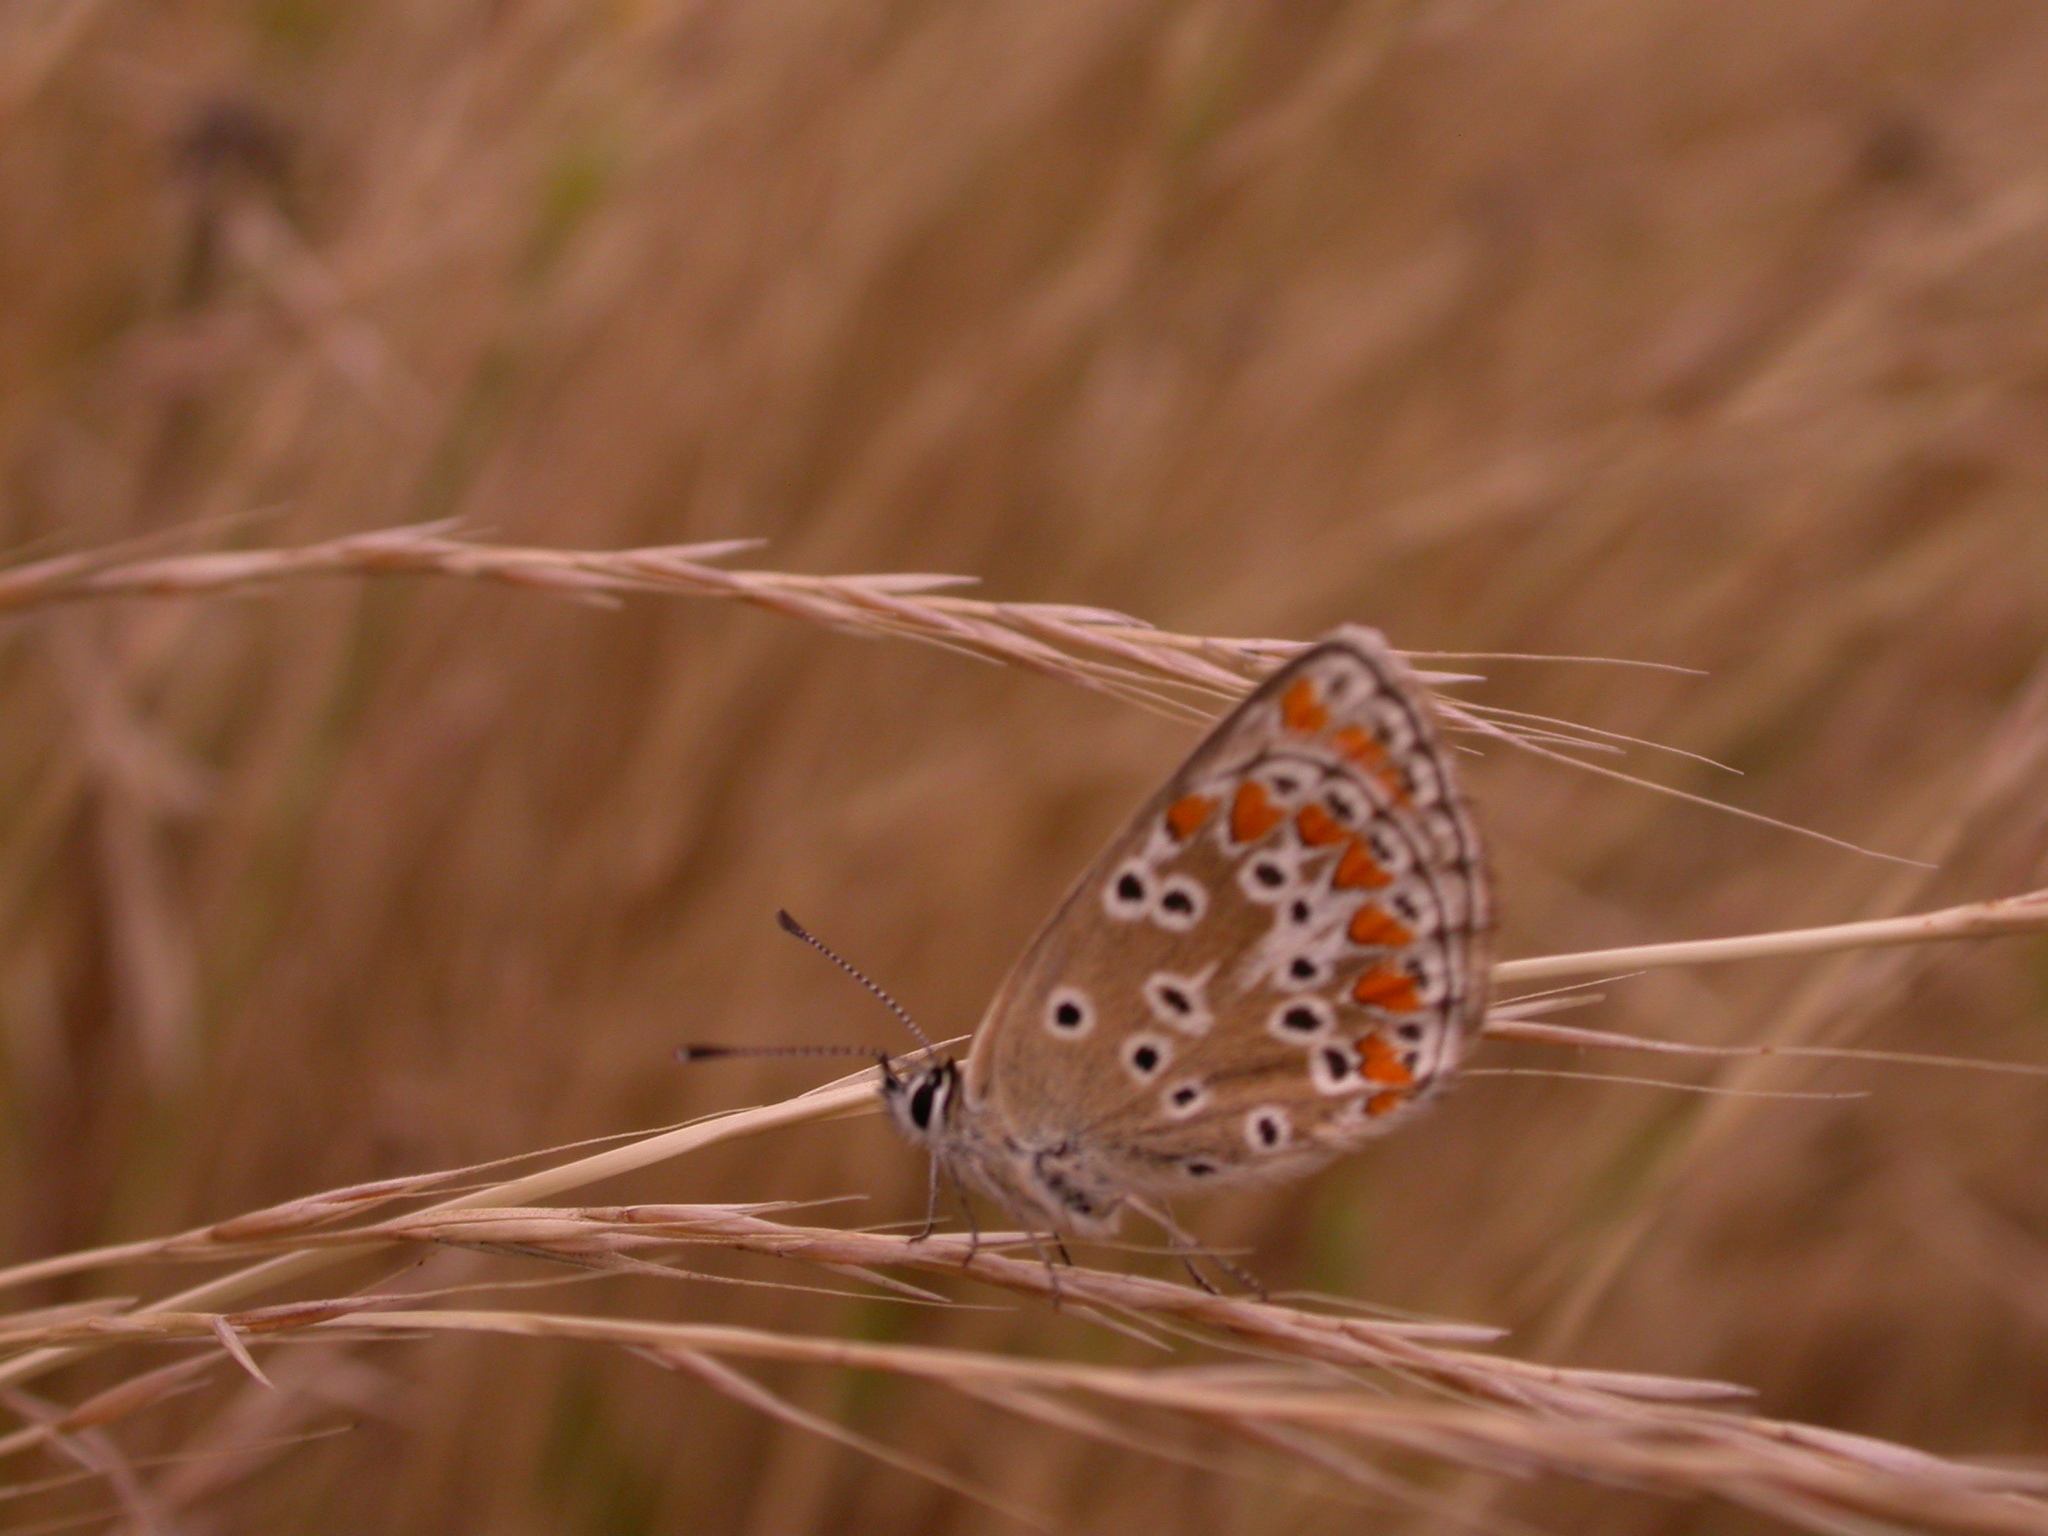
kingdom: Animalia
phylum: Arthropoda
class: Insecta
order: Lepidoptera
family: Lycaenidae
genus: Aricia
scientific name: Aricia agestis
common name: Brown argus
